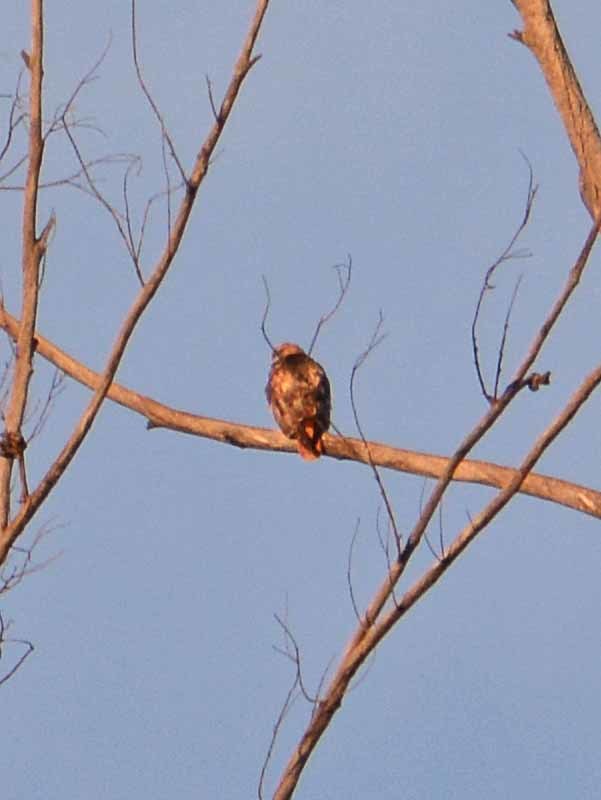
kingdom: Animalia
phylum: Chordata
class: Aves
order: Accipitriformes
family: Accipitridae
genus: Buteo
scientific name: Buteo jamaicensis
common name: Red-tailed hawk
